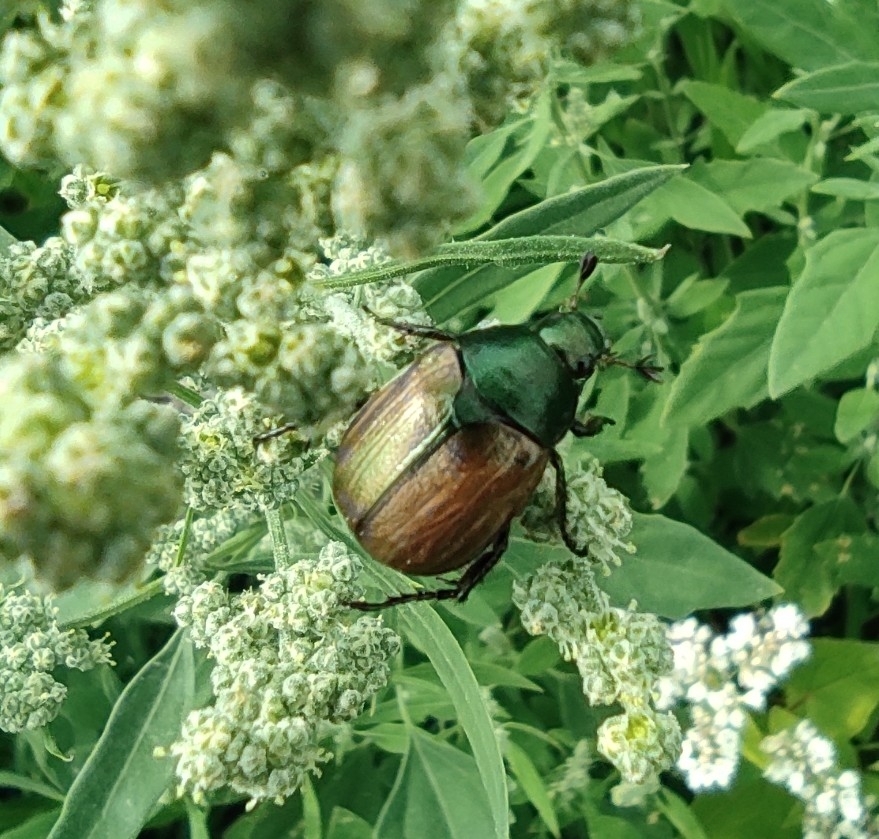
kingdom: Animalia
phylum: Arthropoda
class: Insecta
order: Coleoptera
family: Scarabaeidae
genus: Anomala
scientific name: Anomala dubia
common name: Dune chafer
